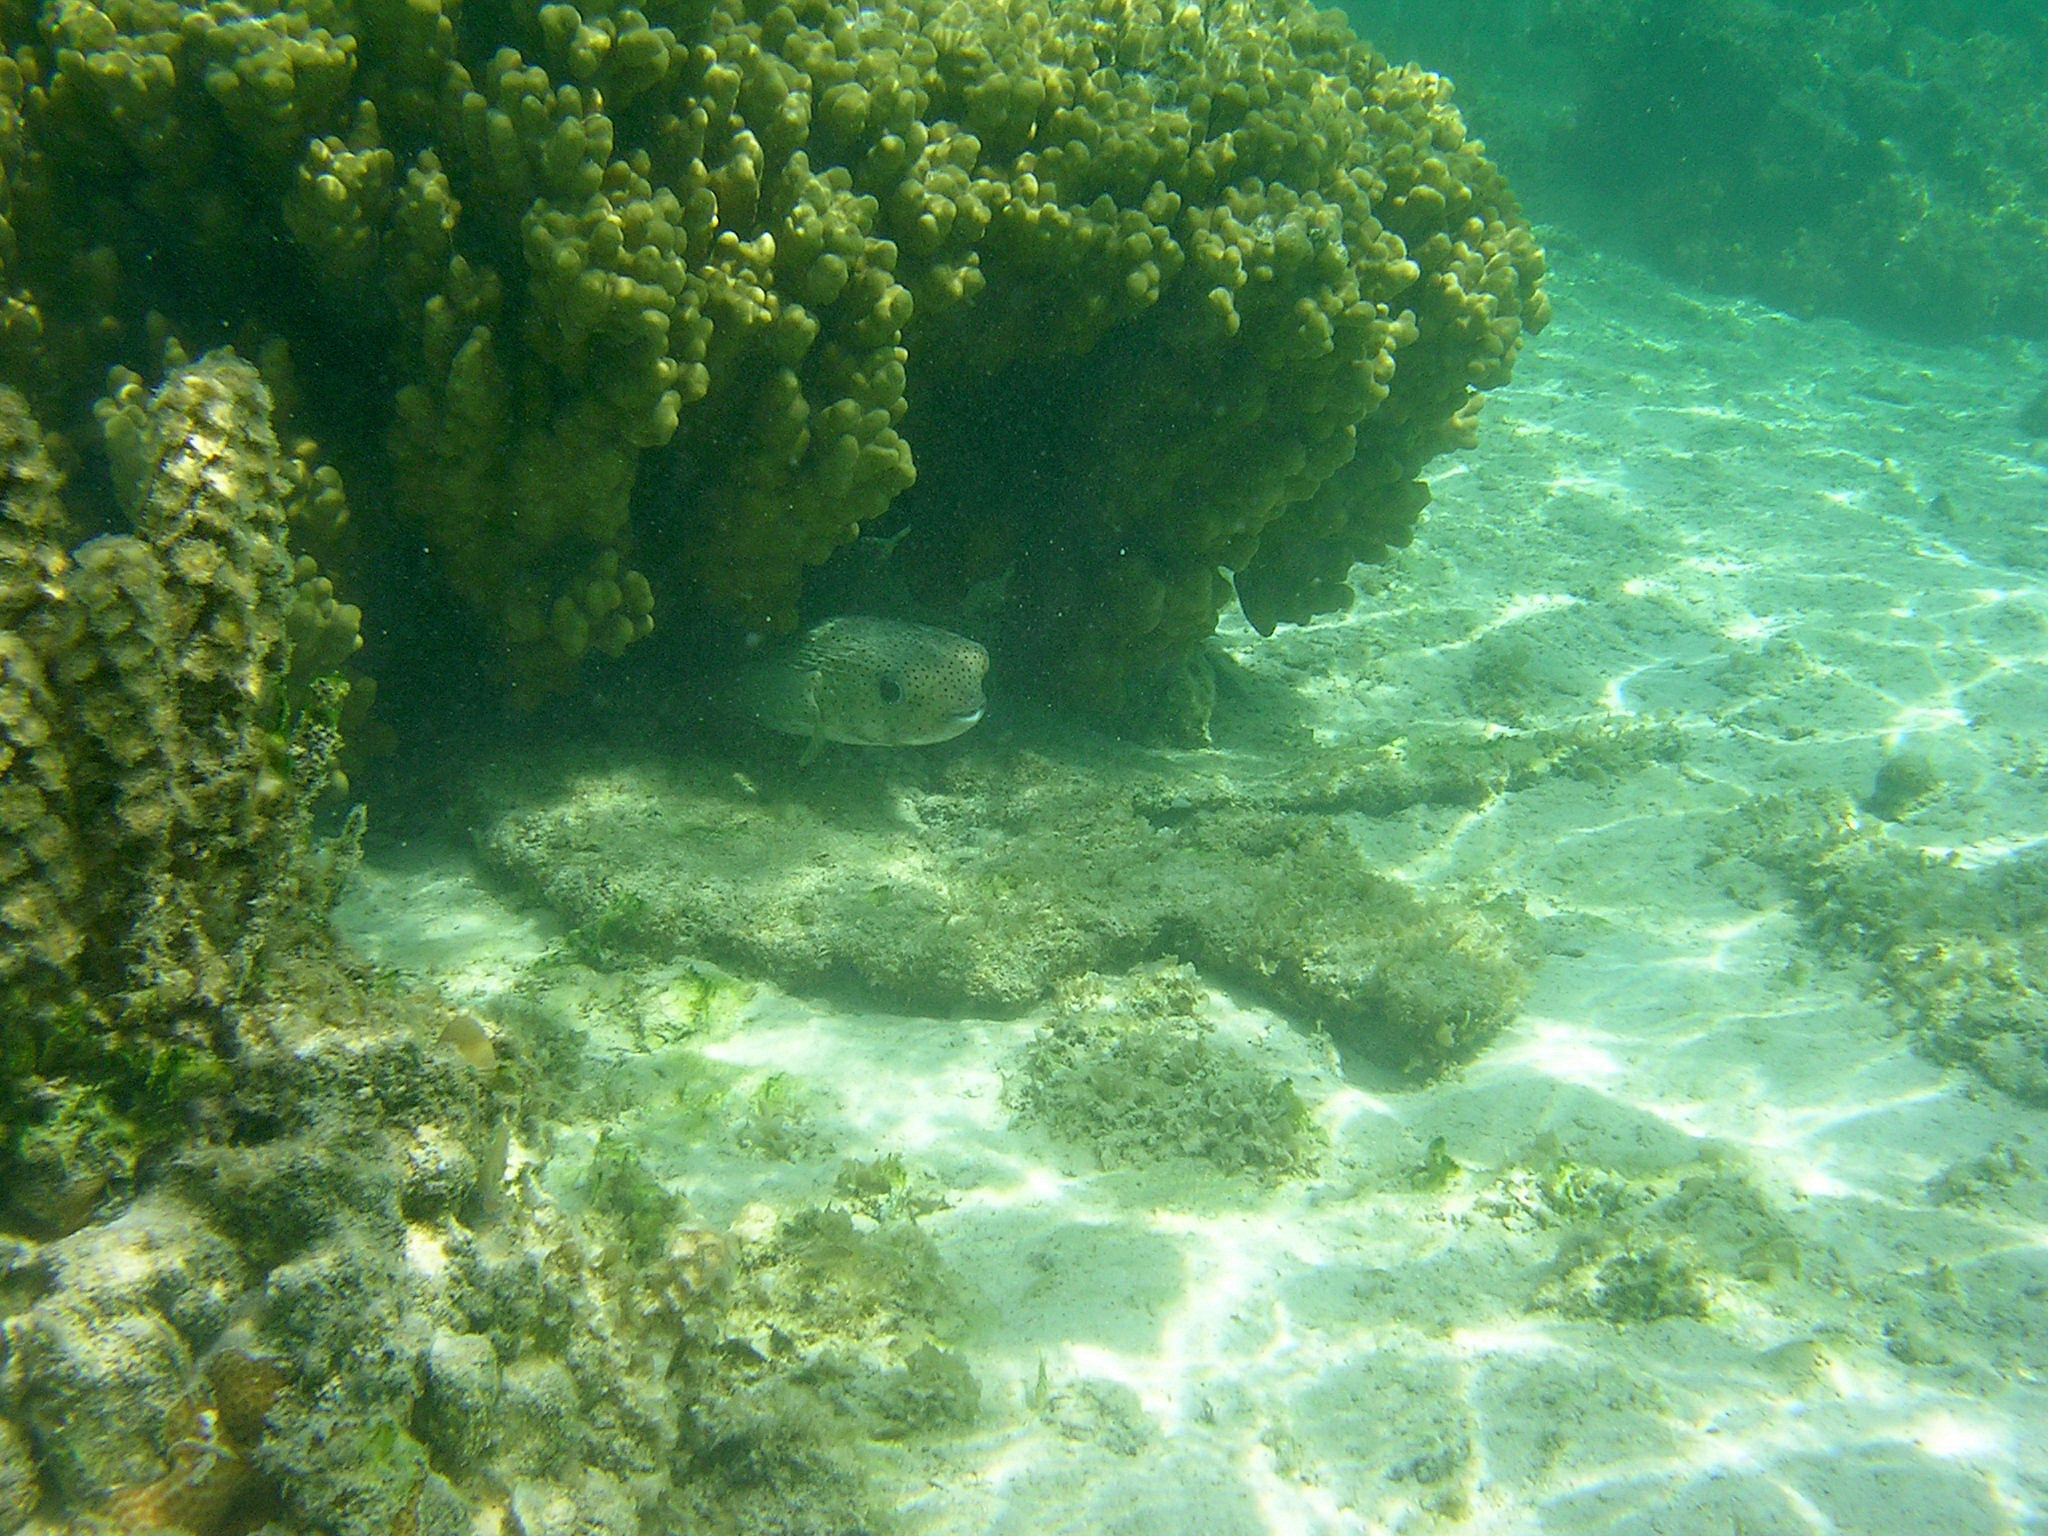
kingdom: Animalia
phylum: Chordata
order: Tetraodontiformes
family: Diodontidae
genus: Diodon
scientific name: Diodon hystrix
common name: Giant porcupinefish
